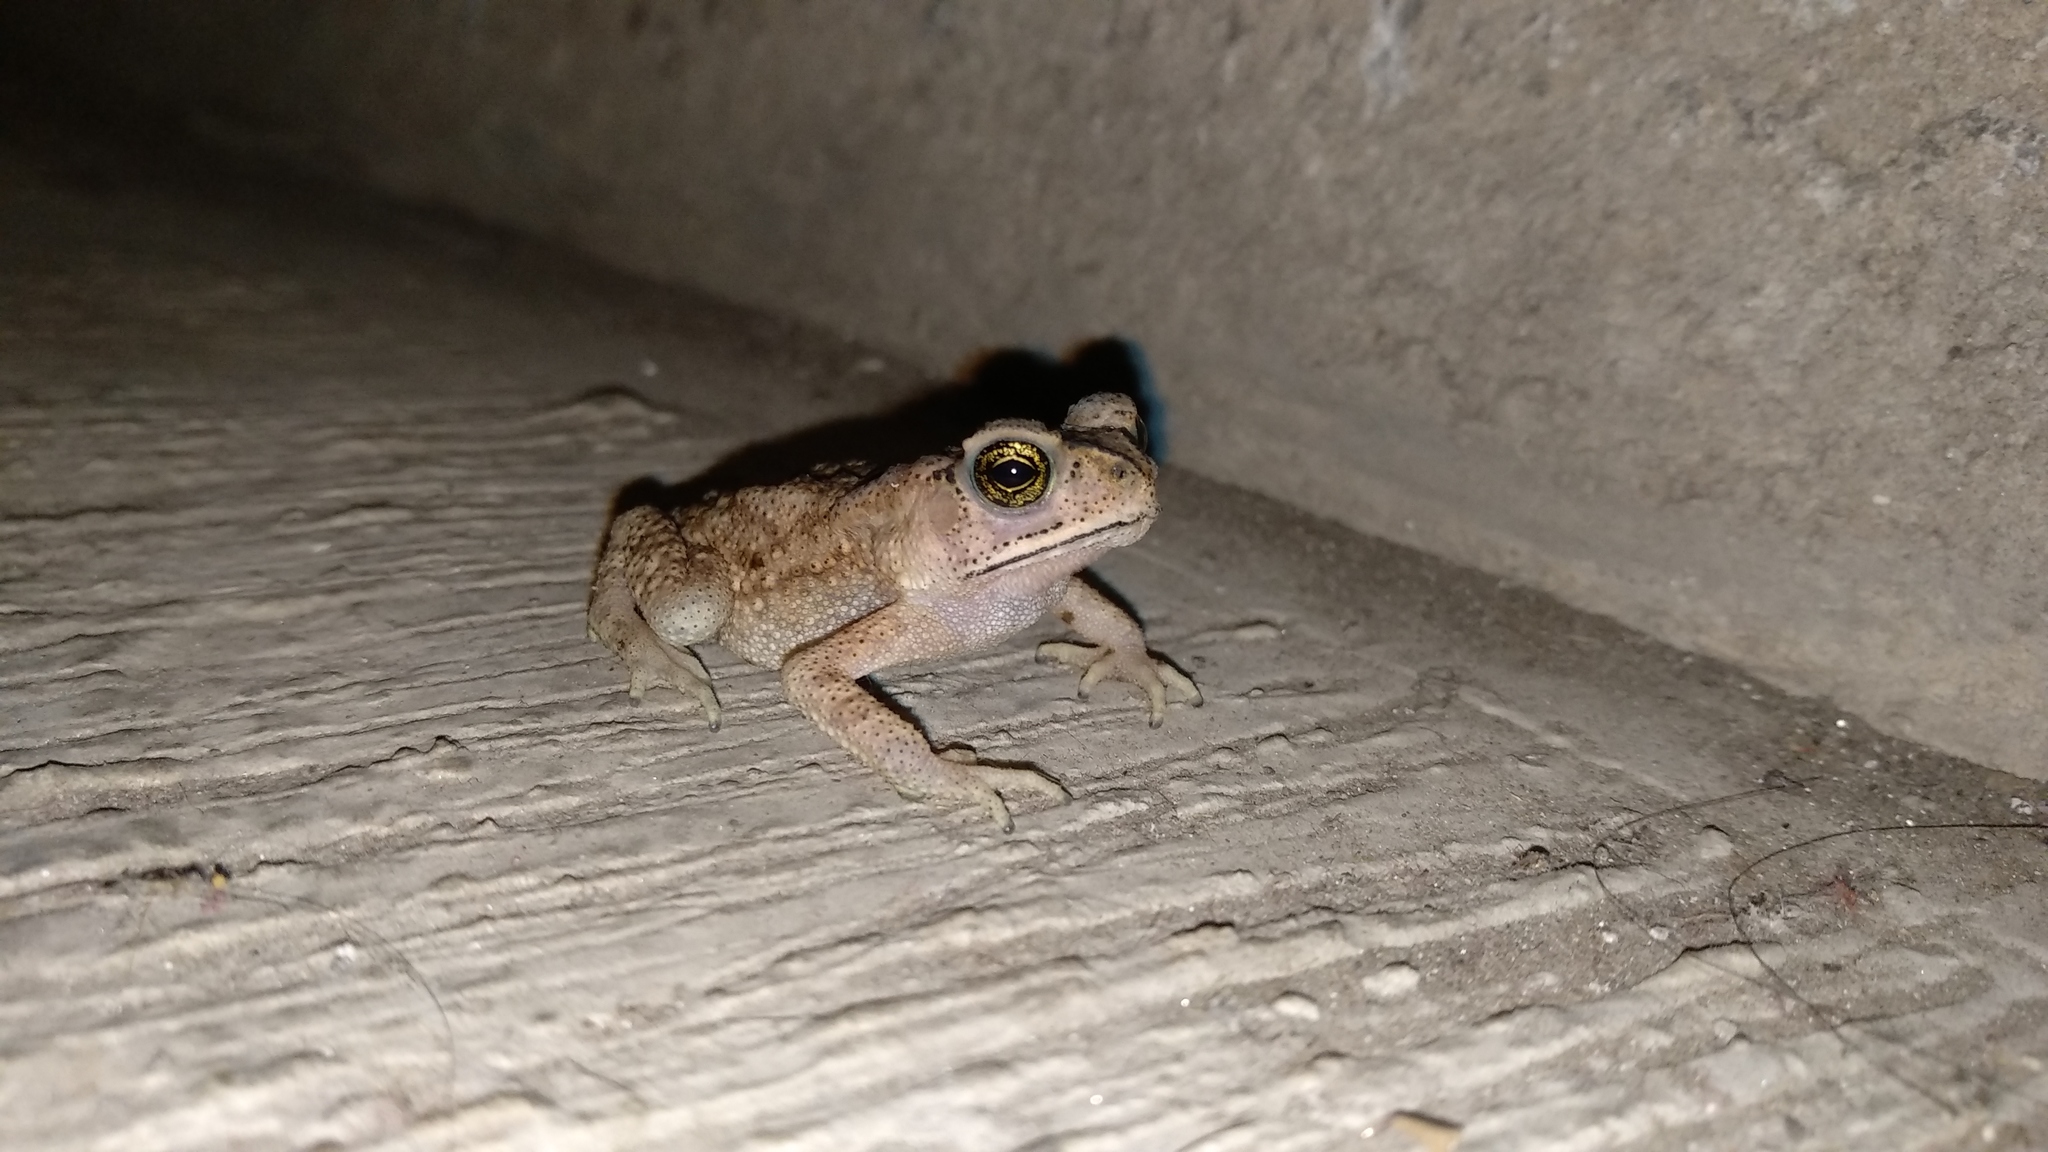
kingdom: Animalia
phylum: Chordata
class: Amphibia
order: Anura
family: Bufonidae
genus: Duttaphrynus
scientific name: Duttaphrynus melanostictus
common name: Common sunda toad
